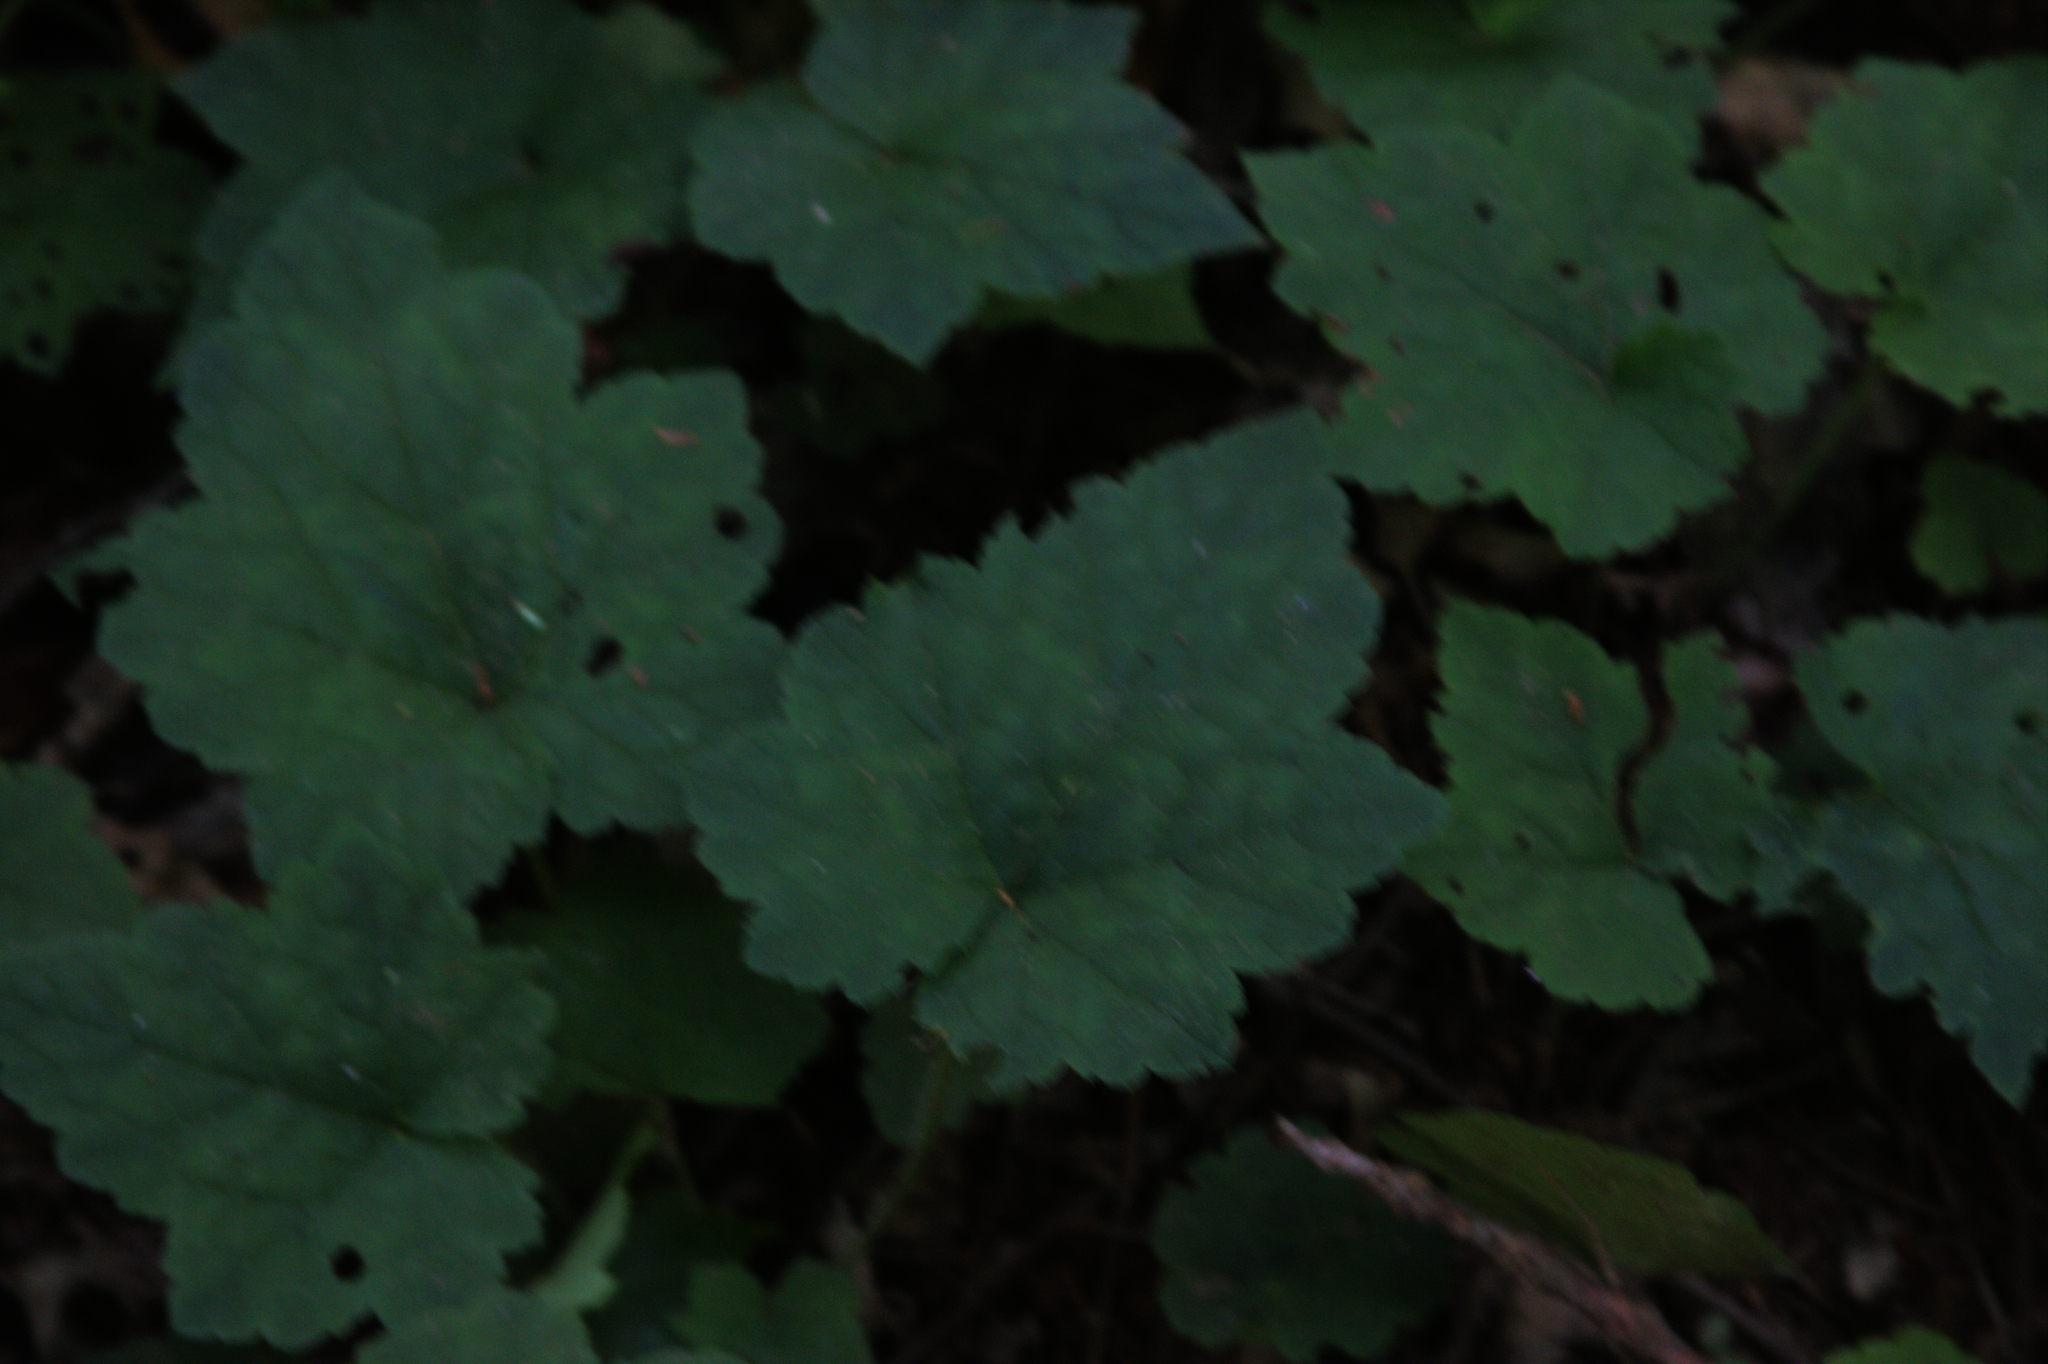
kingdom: Plantae
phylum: Tracheophyta
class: Magnoliopsida
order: Saxifragales
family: Saxifragaceae
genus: Tiarella
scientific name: Tiarella stolonifera
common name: Stoloniferous foamflower
